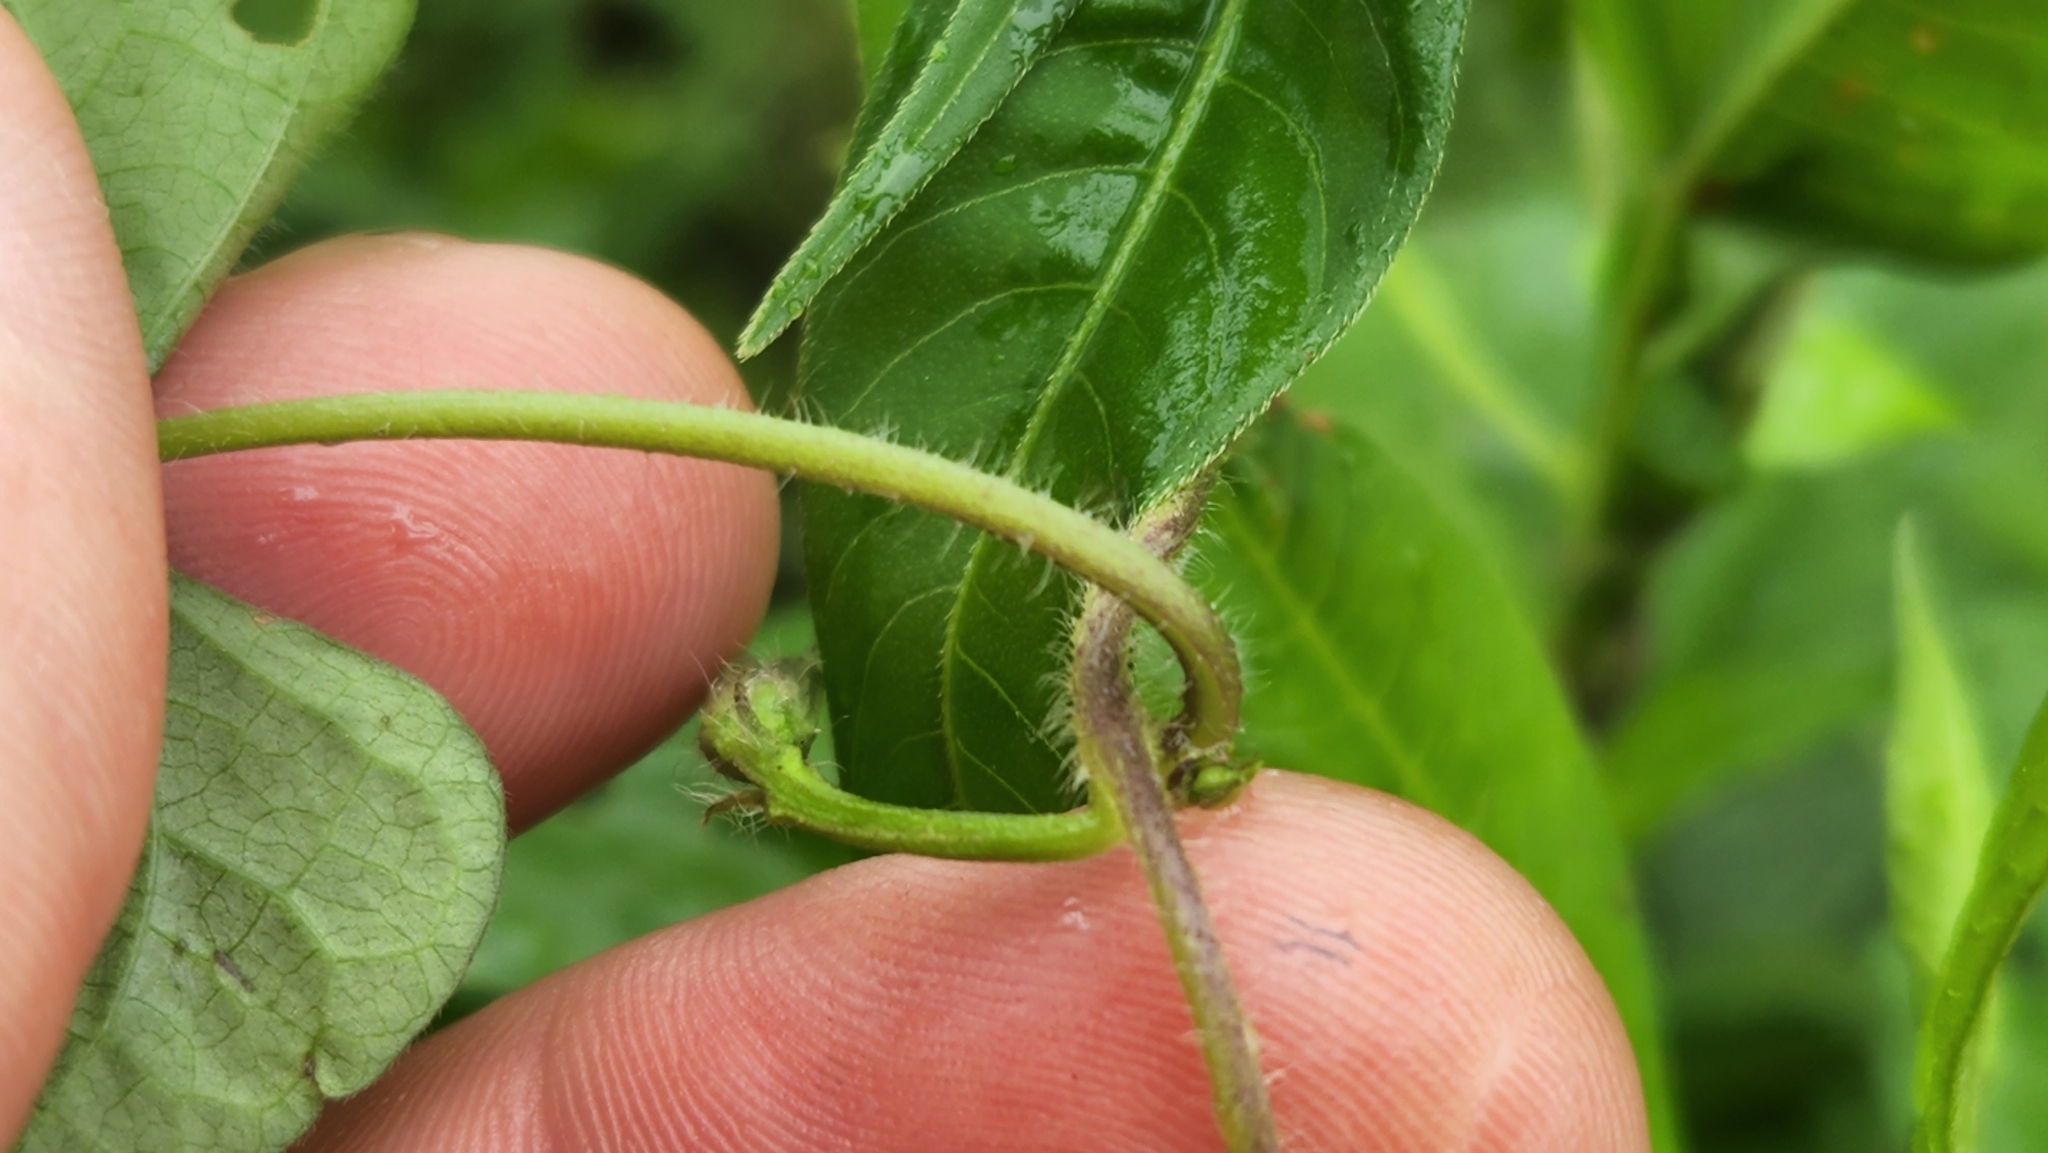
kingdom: Plantae
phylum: Tracheophyta
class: Magnoliopsida
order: Solanales
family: Convolvulaceae
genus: Ipomoea
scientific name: Ipomoea lacunosa
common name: White morning-glory
